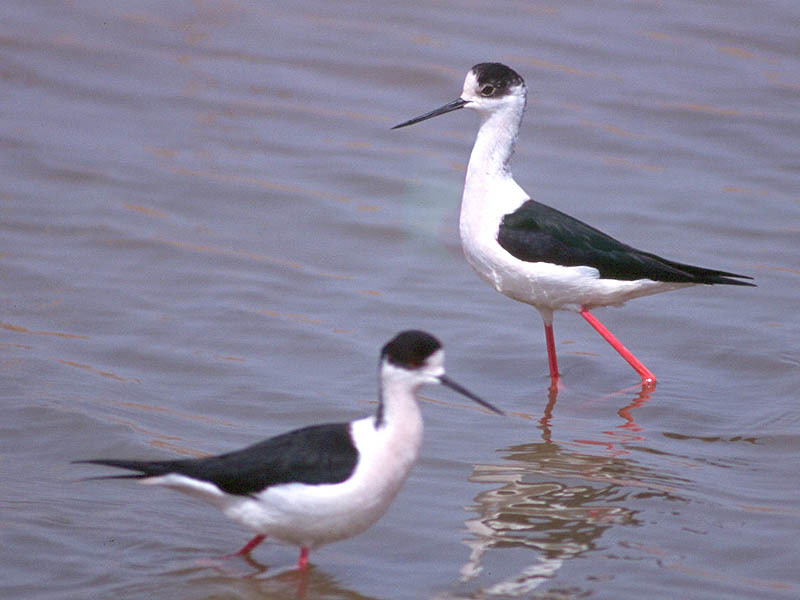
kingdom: Animalia
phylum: Chordata
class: Aves
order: Charadriiformes
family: Recurvirostridae
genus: Himantopus
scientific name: Himantopus himantopus
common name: Black-winged stilt
